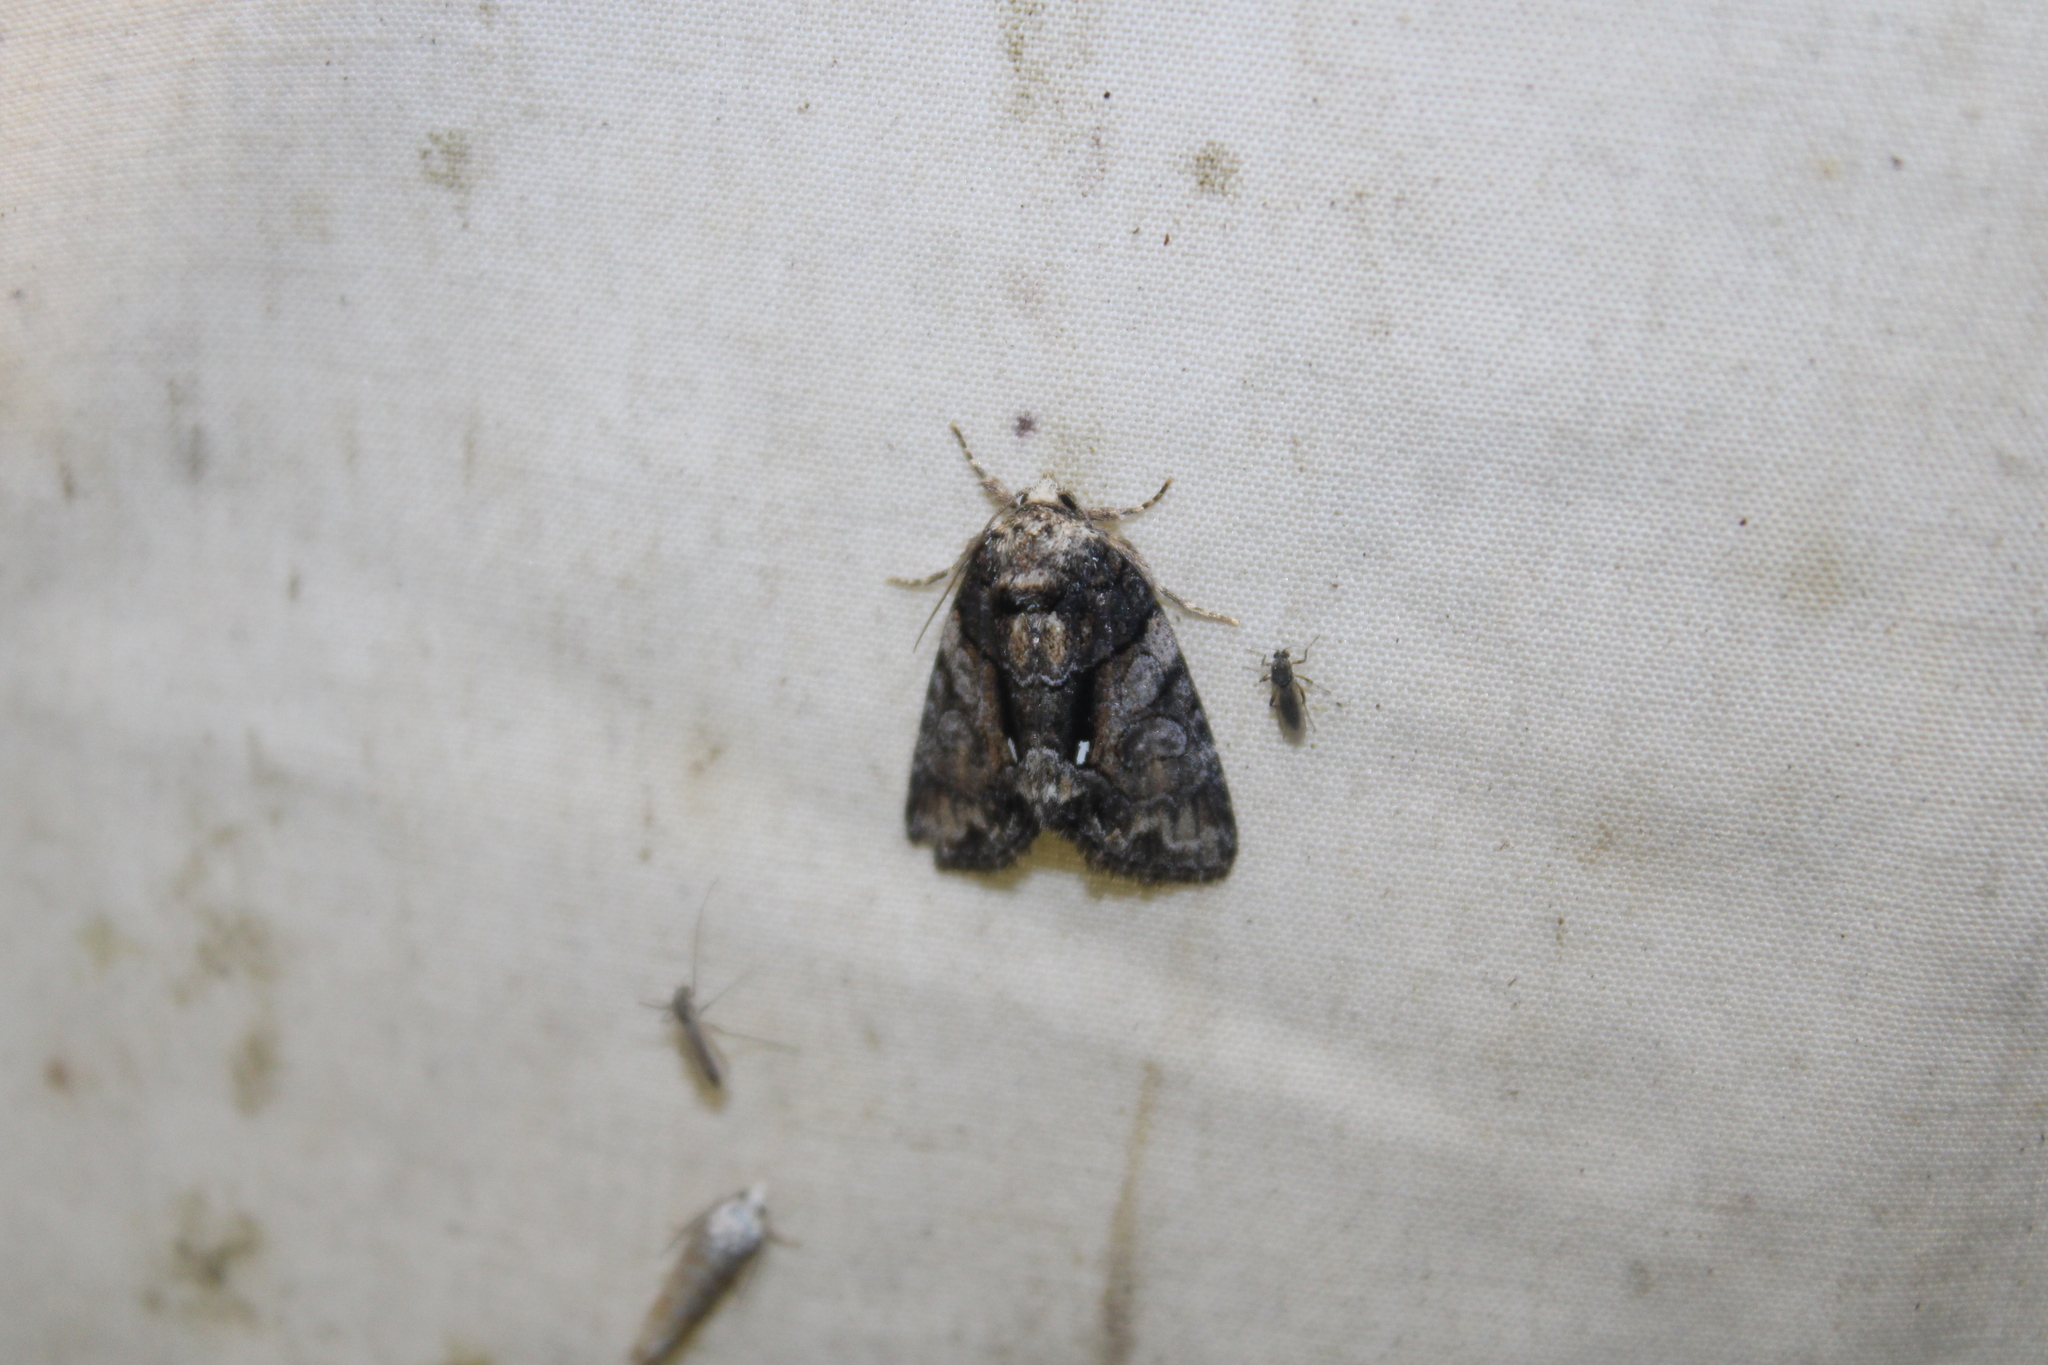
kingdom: Animalia
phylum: Arthropoda
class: Insecta
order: Lepidoptera
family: Noctuidae
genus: Chytonix
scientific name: Chytonix palliatricula
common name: Cloaked marvel
